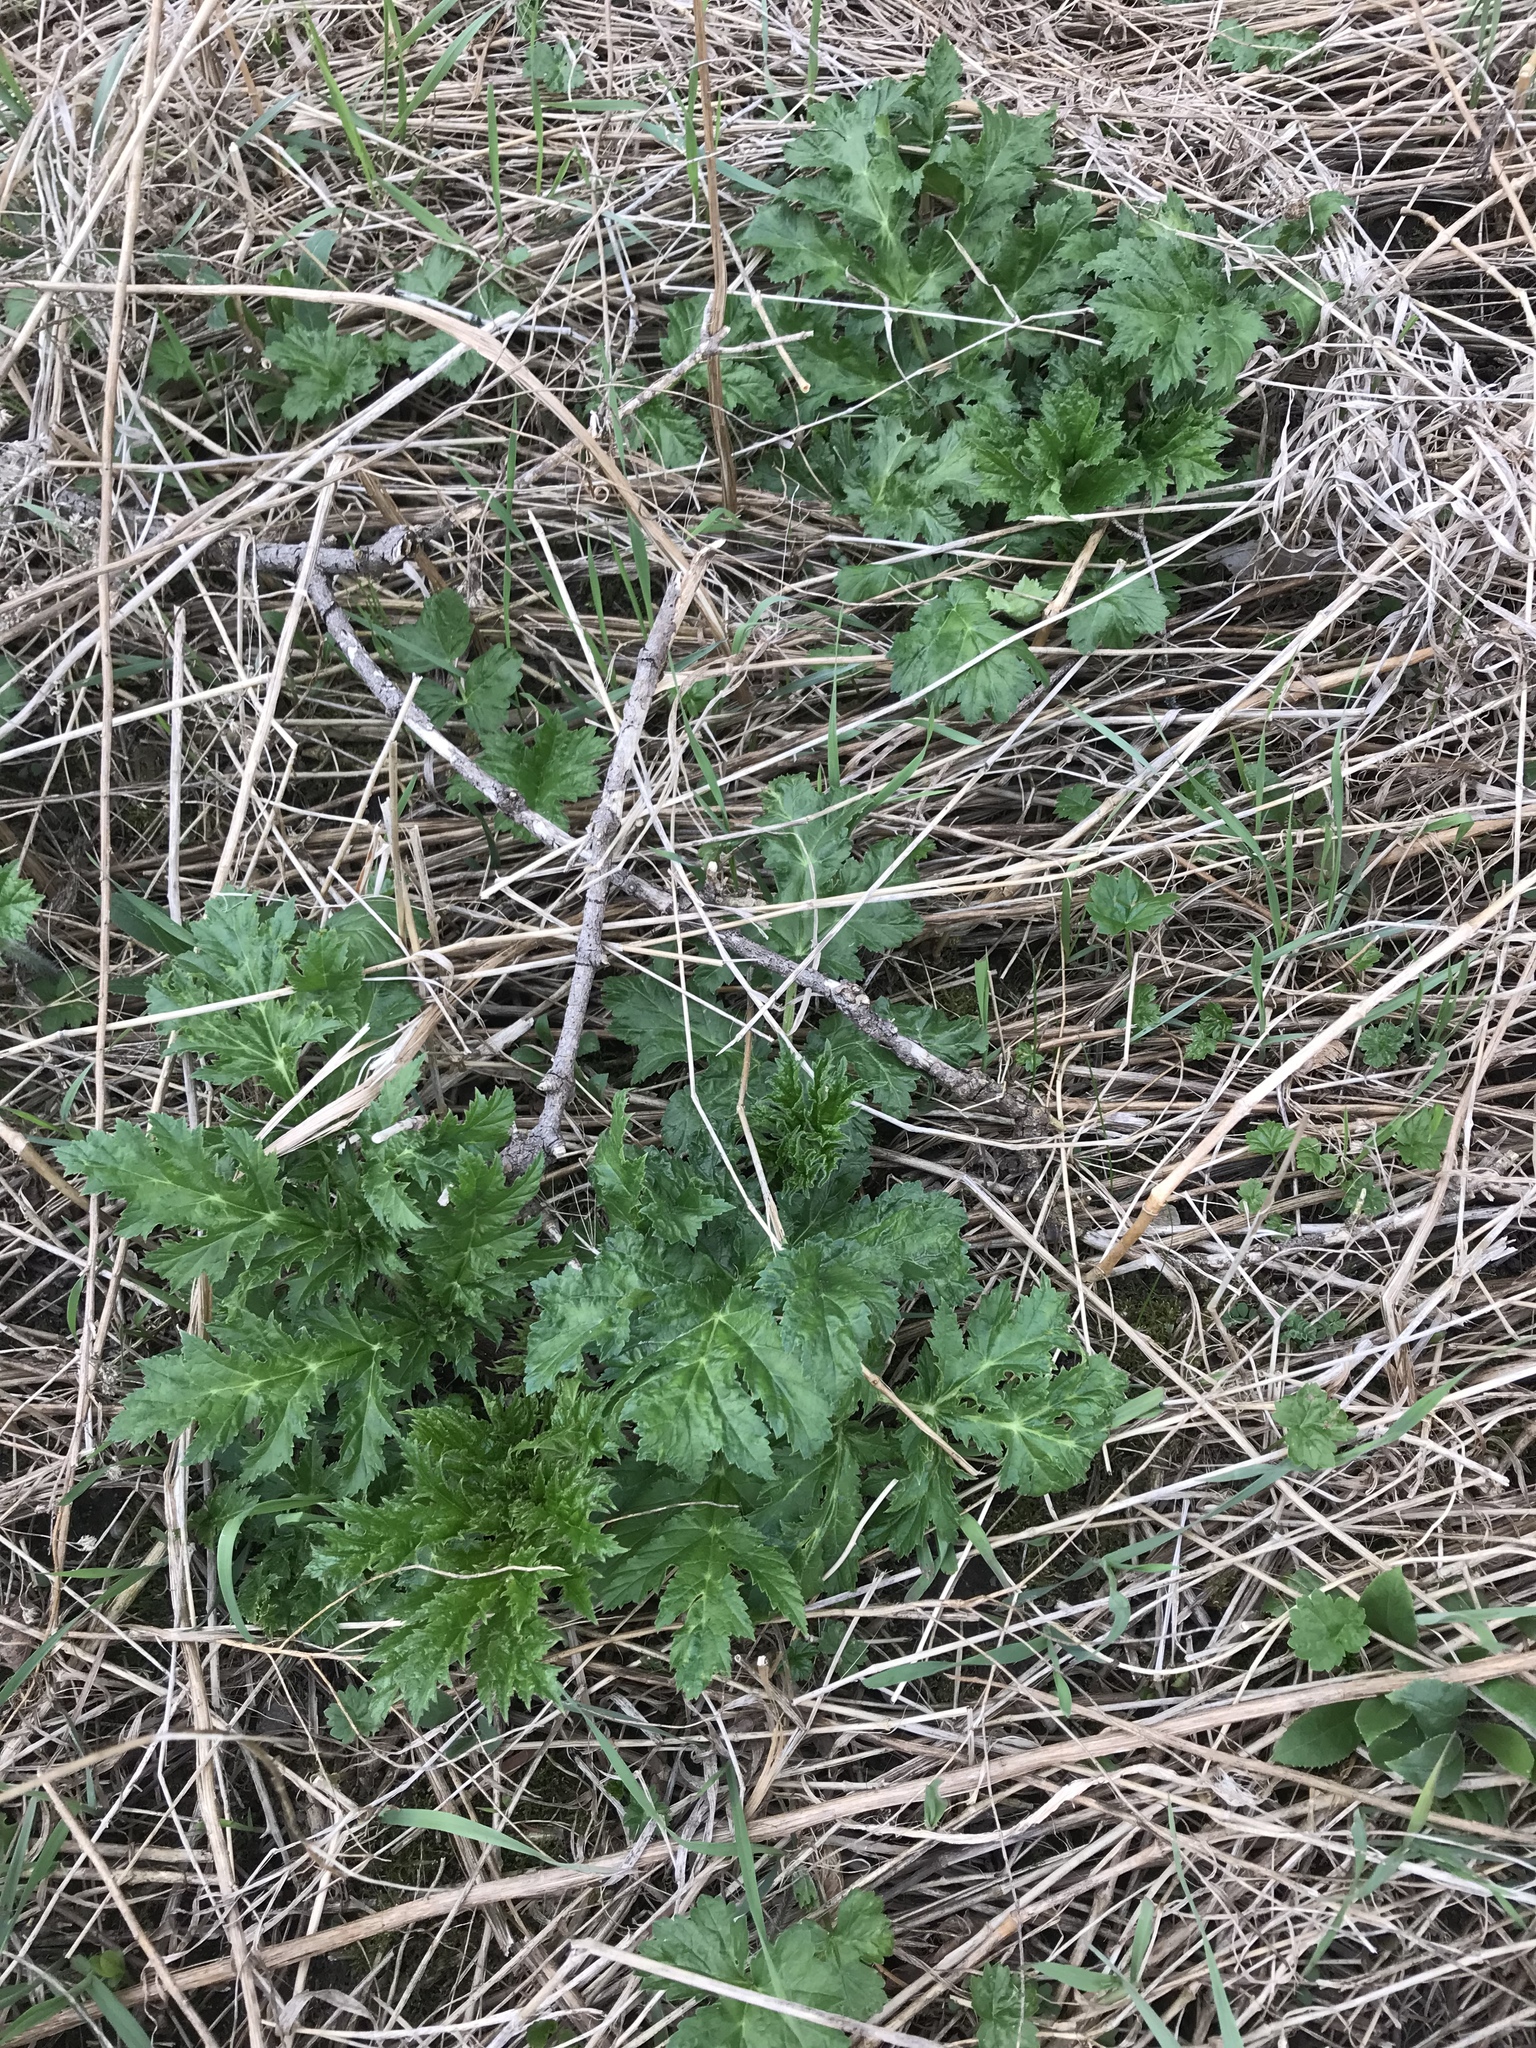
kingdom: Plantae
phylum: Tracheophyta
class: Magnoliopsida
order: Apiales
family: Apiaceae
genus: Heracleum
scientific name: Heracleum mantegazzianum
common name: Giant hogweed
